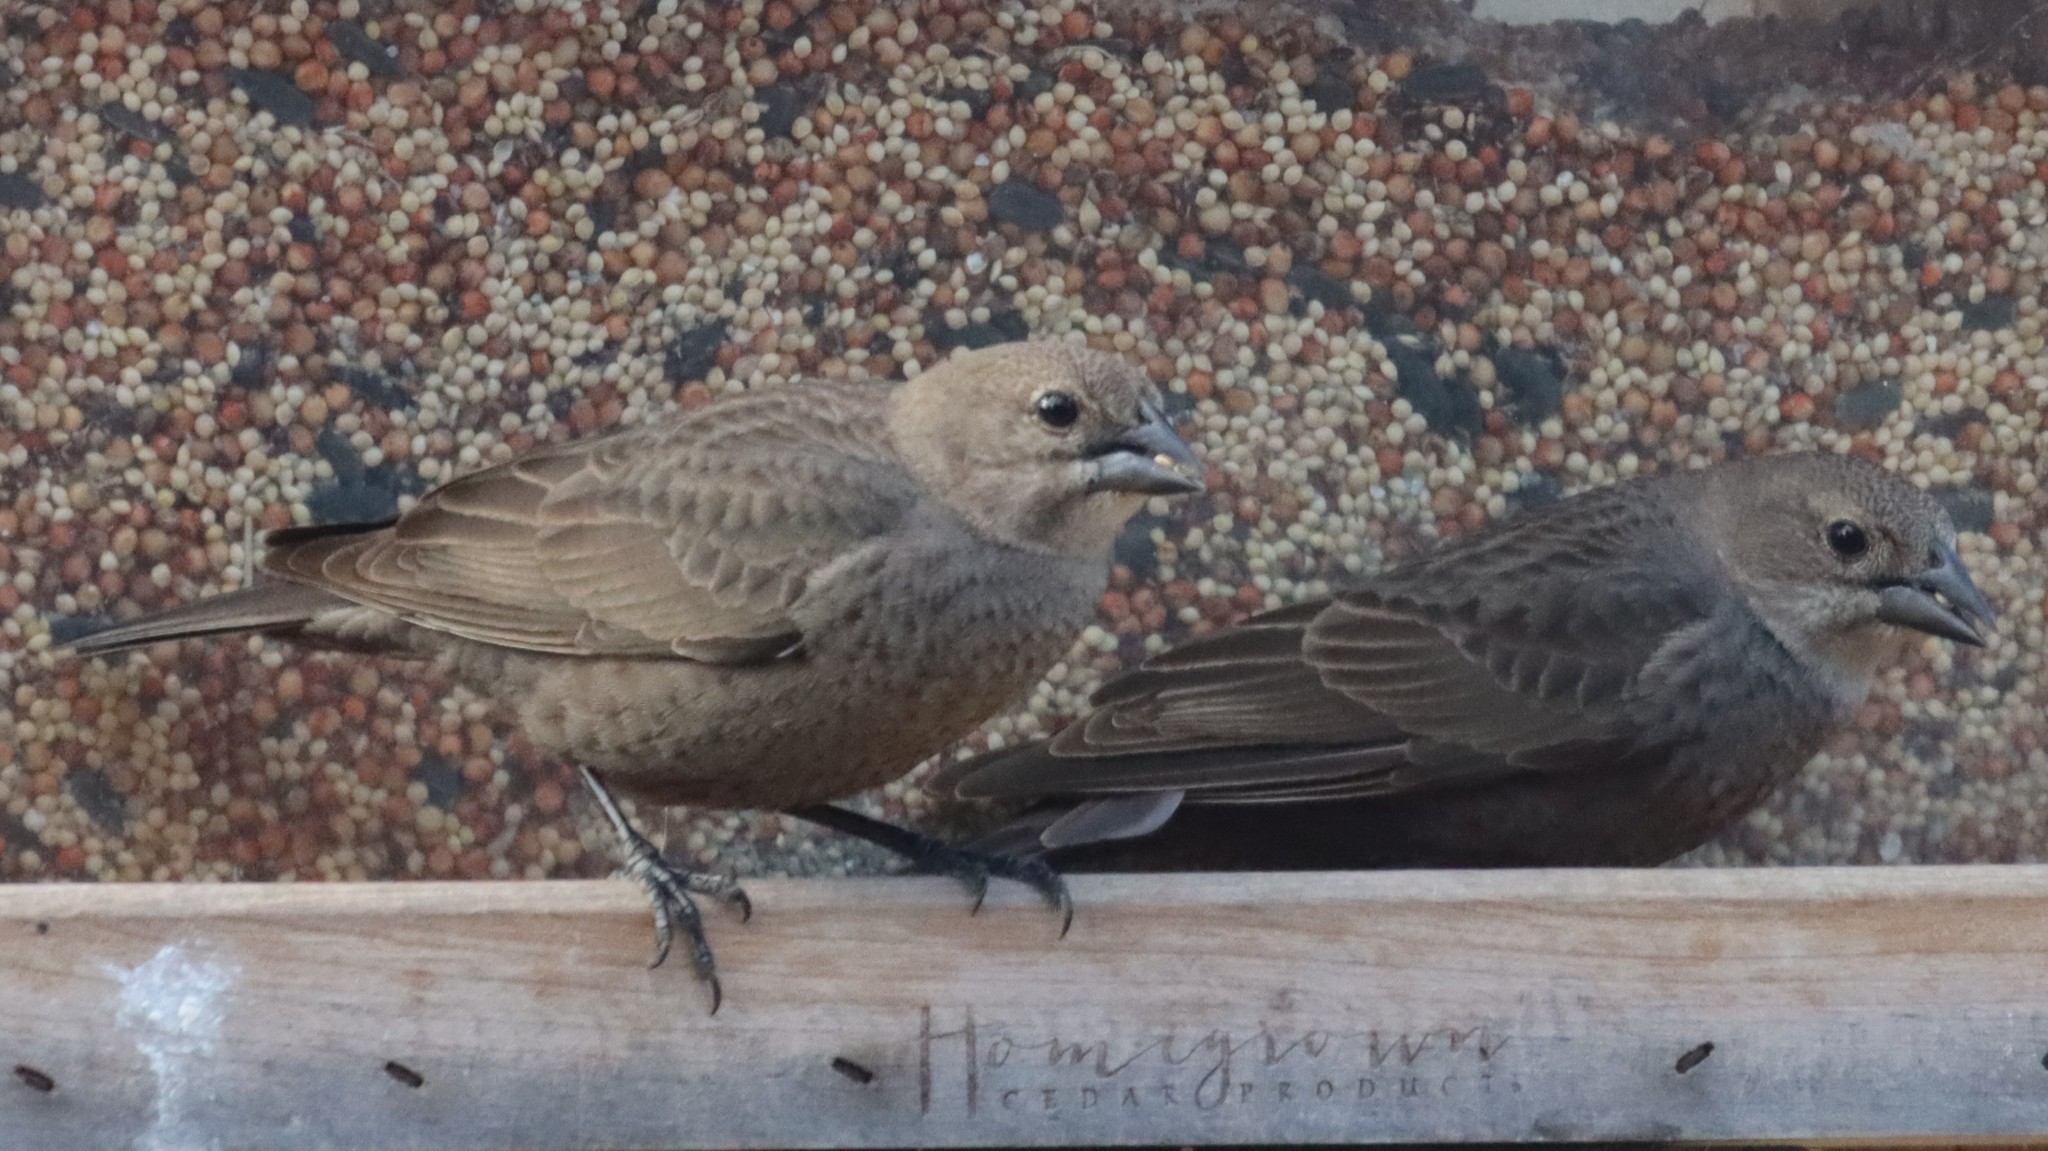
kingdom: Animalia
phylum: Chordata
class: Aves
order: Passeriformes
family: Icteridae
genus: Molothrus
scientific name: Molothrus ater
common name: Brown-headed cowbird
